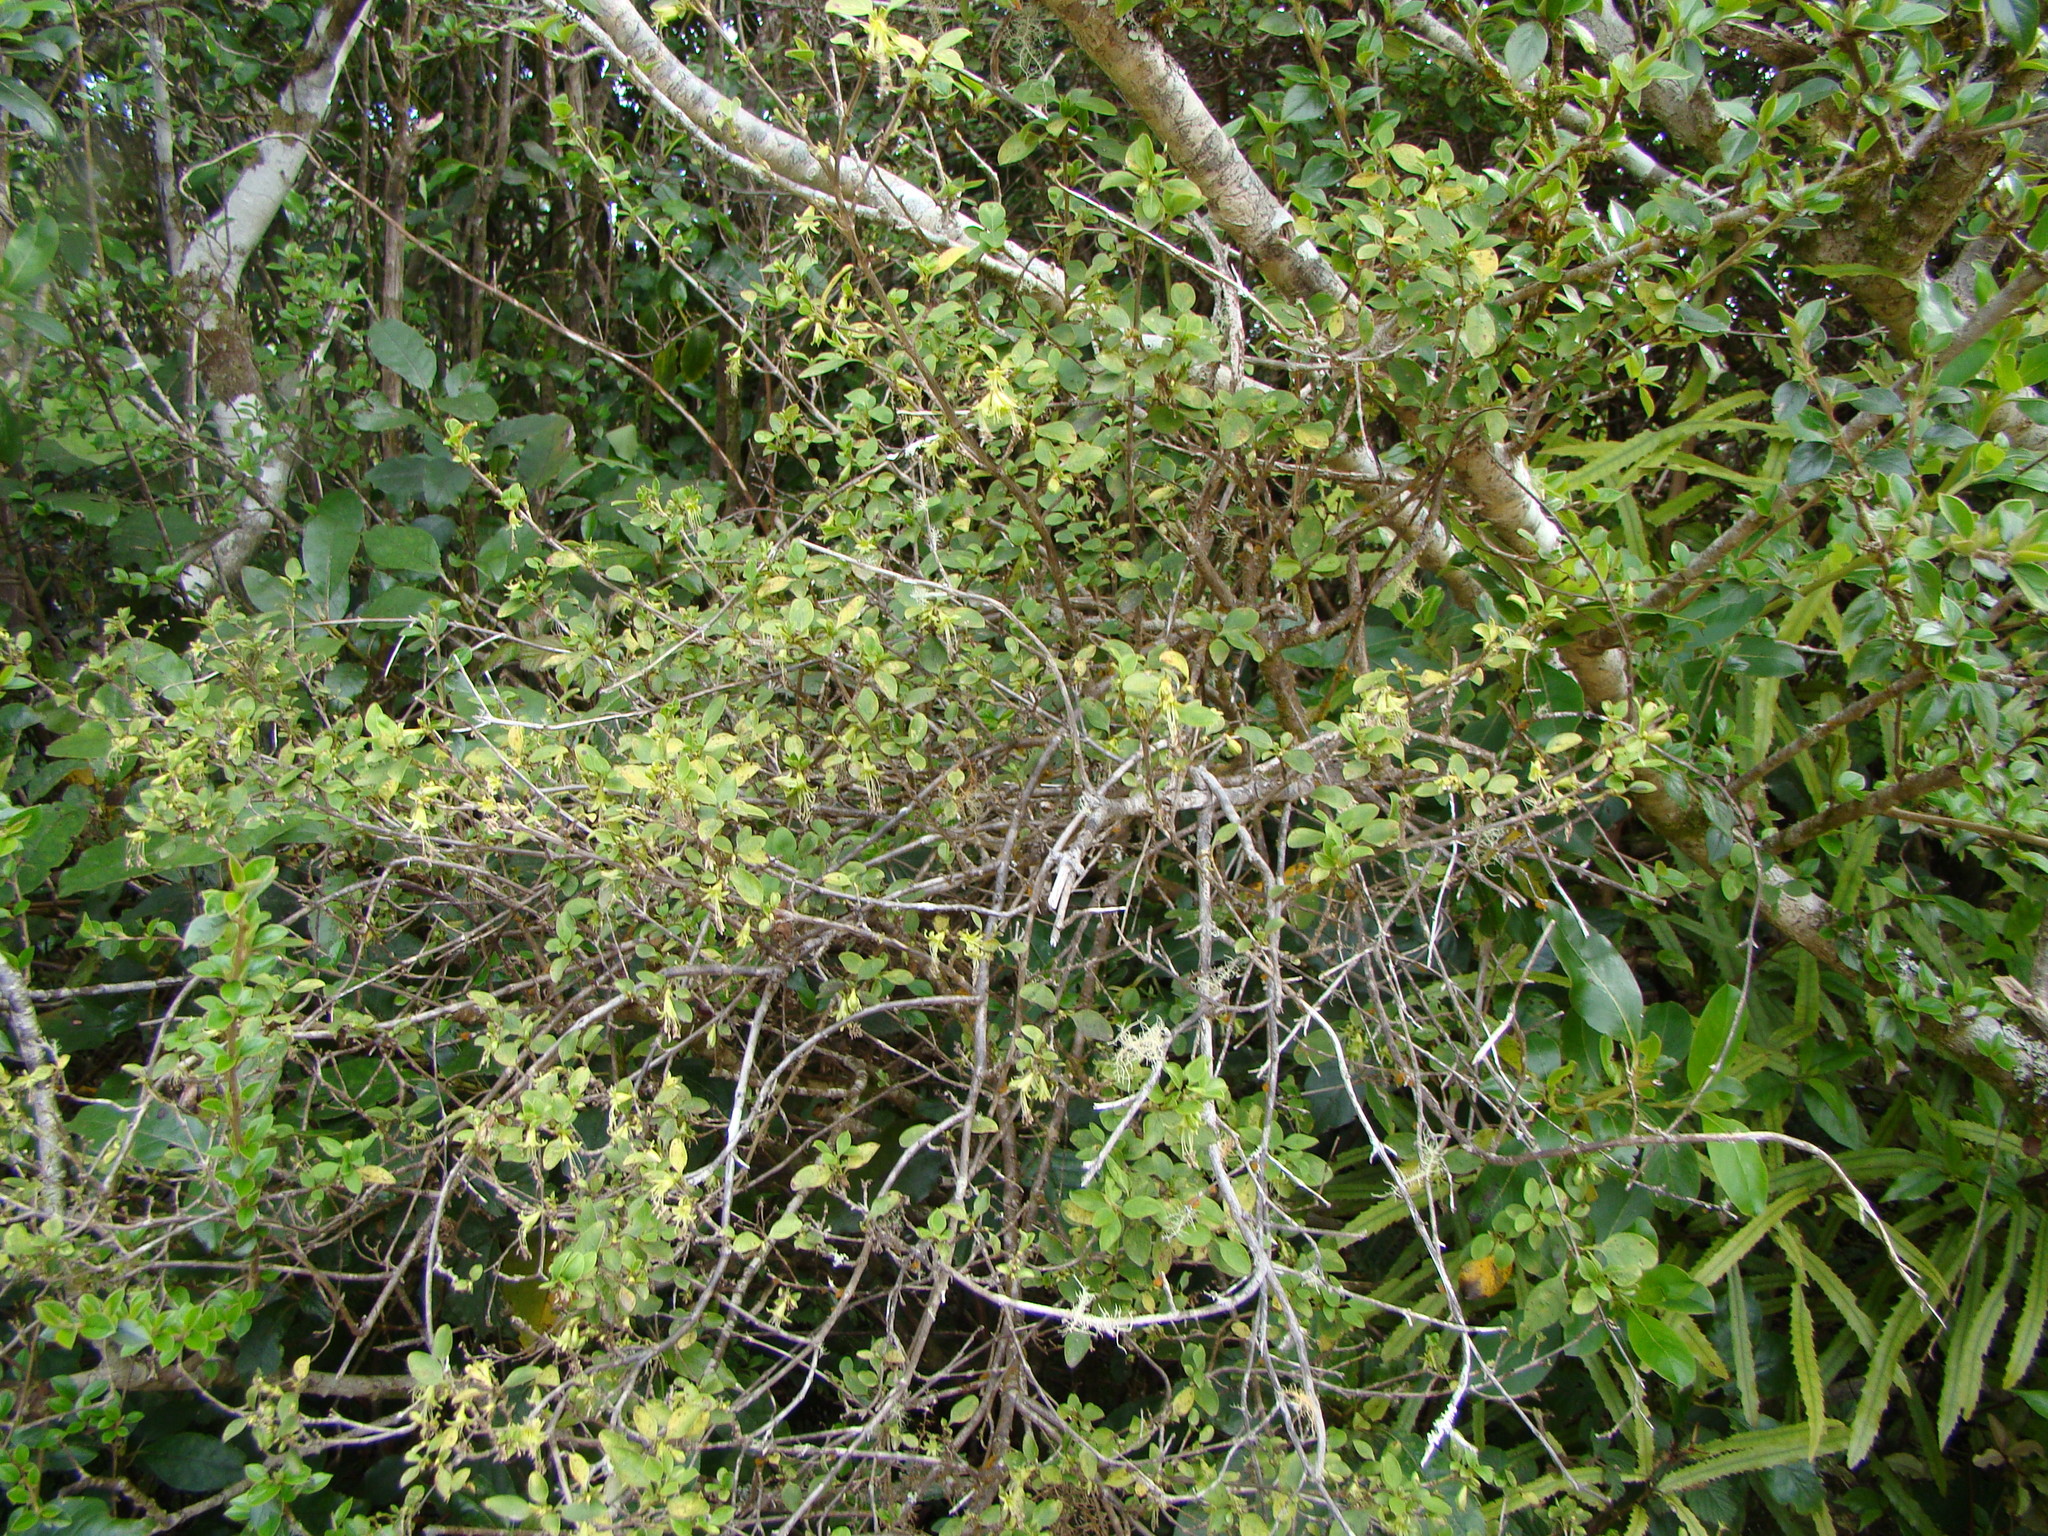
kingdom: Plantae
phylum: Tracheophyta
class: Magnoliopsida
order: Gentianales
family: Rubiaceae
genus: Coprosma
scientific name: Coprosma foetidissima
